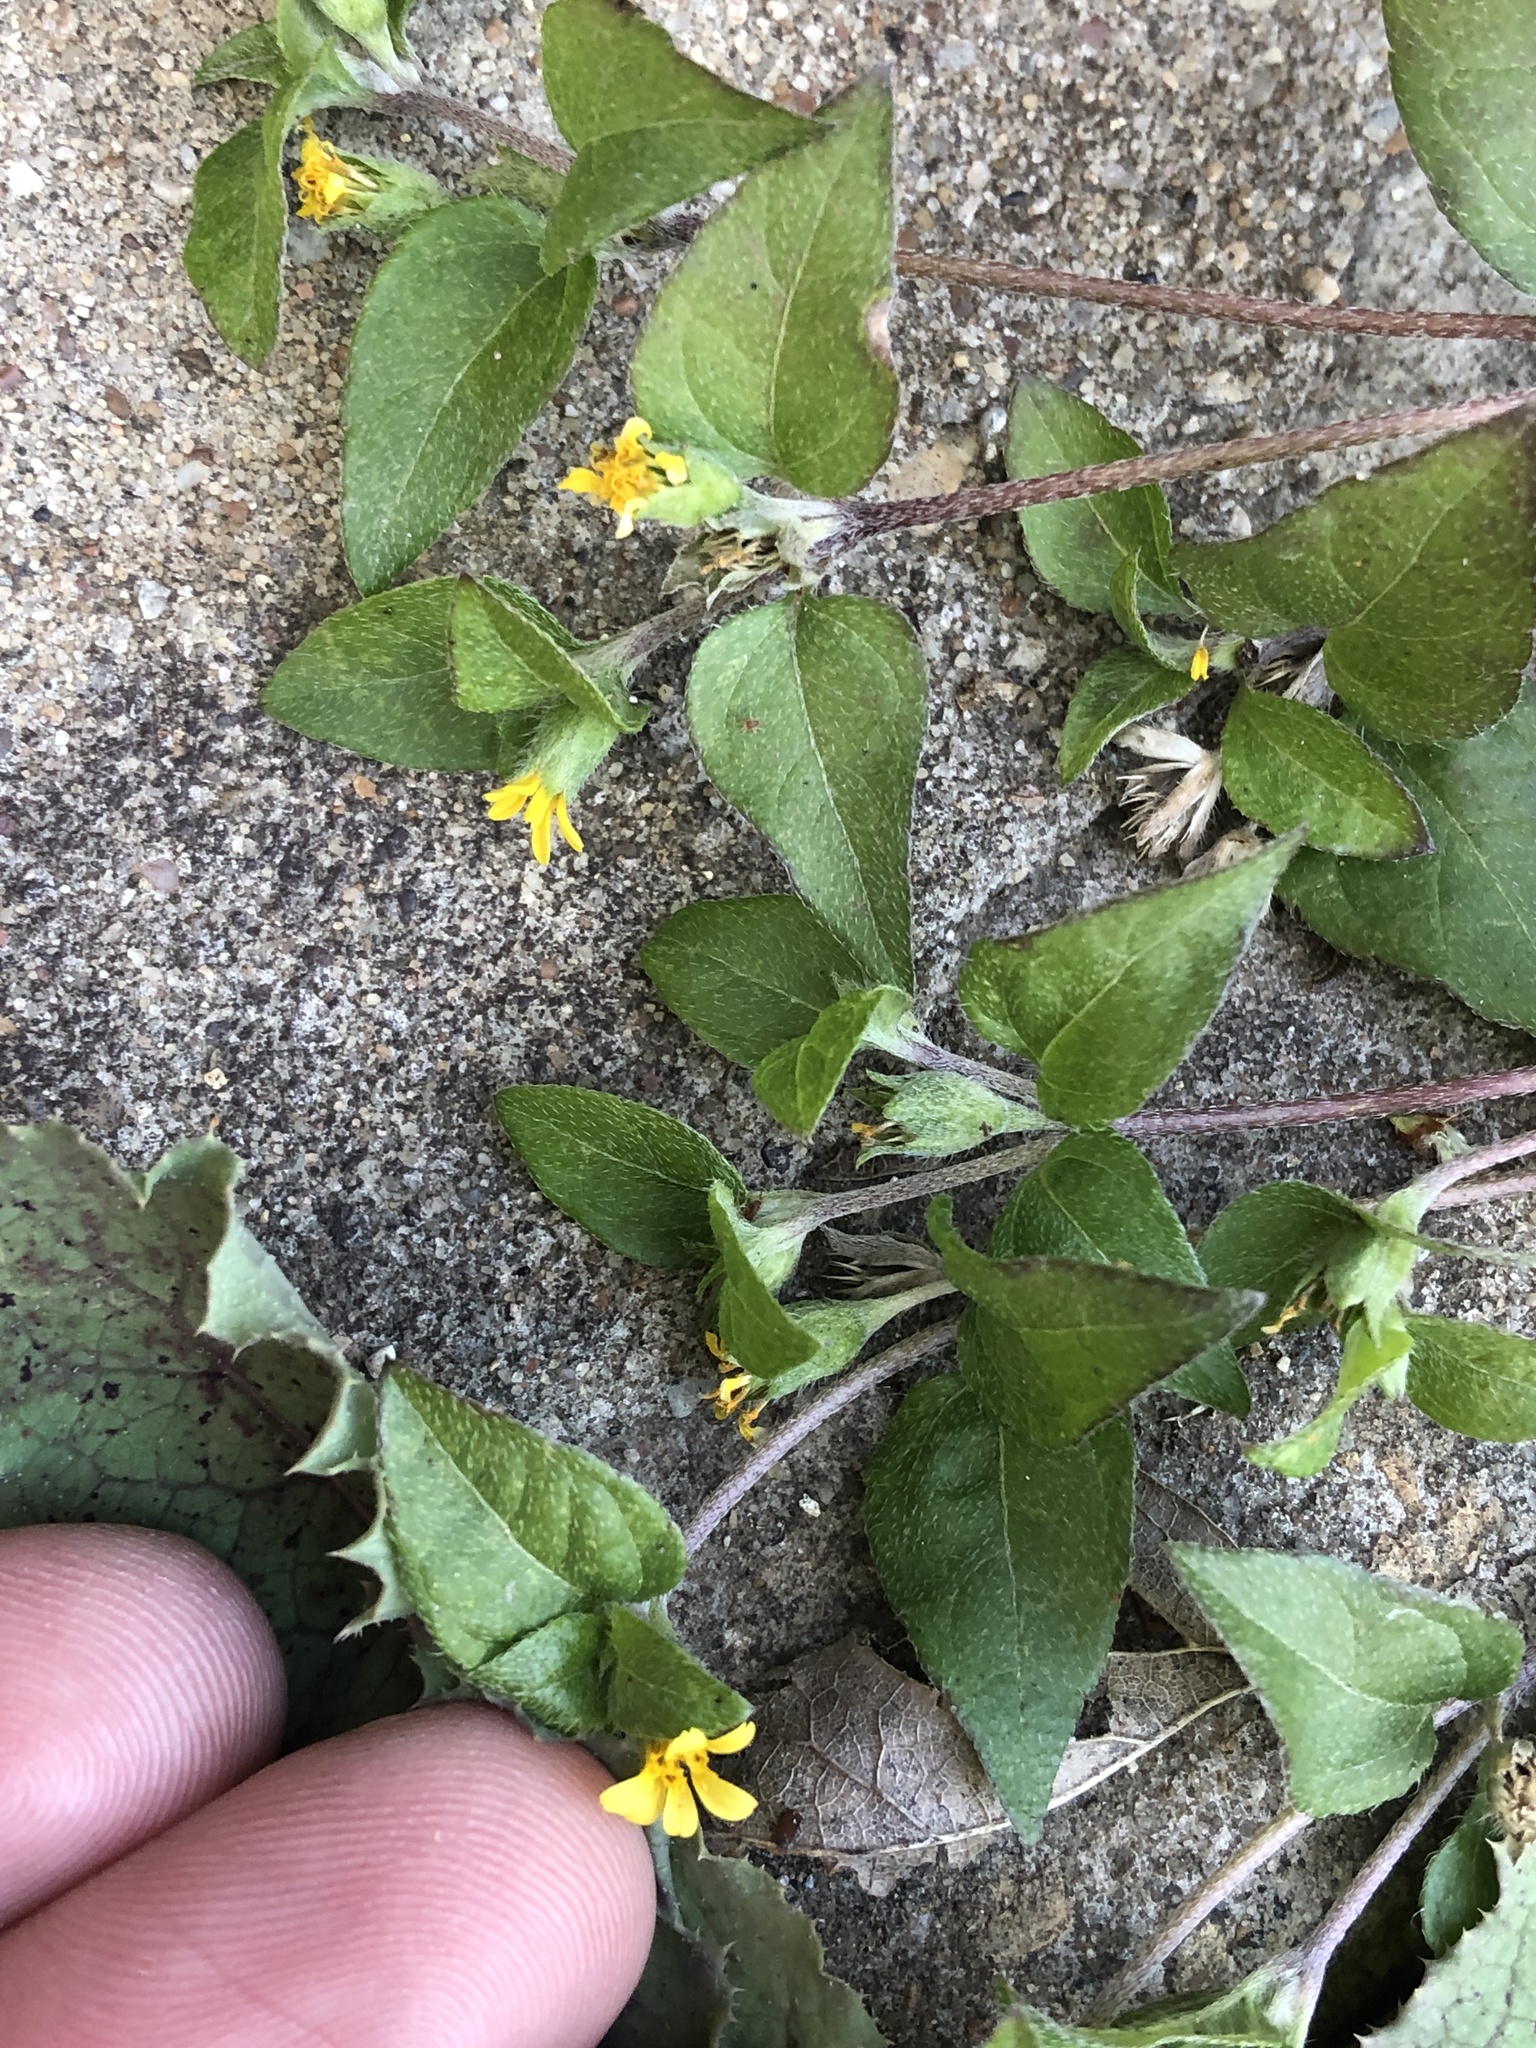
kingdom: Plantae
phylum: Tracheophyta
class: Magnoliopsida
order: Asterales
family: Asteraceae
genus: Calyptocarpus
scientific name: Calyptocarpus vialis
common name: Straggler daisy
